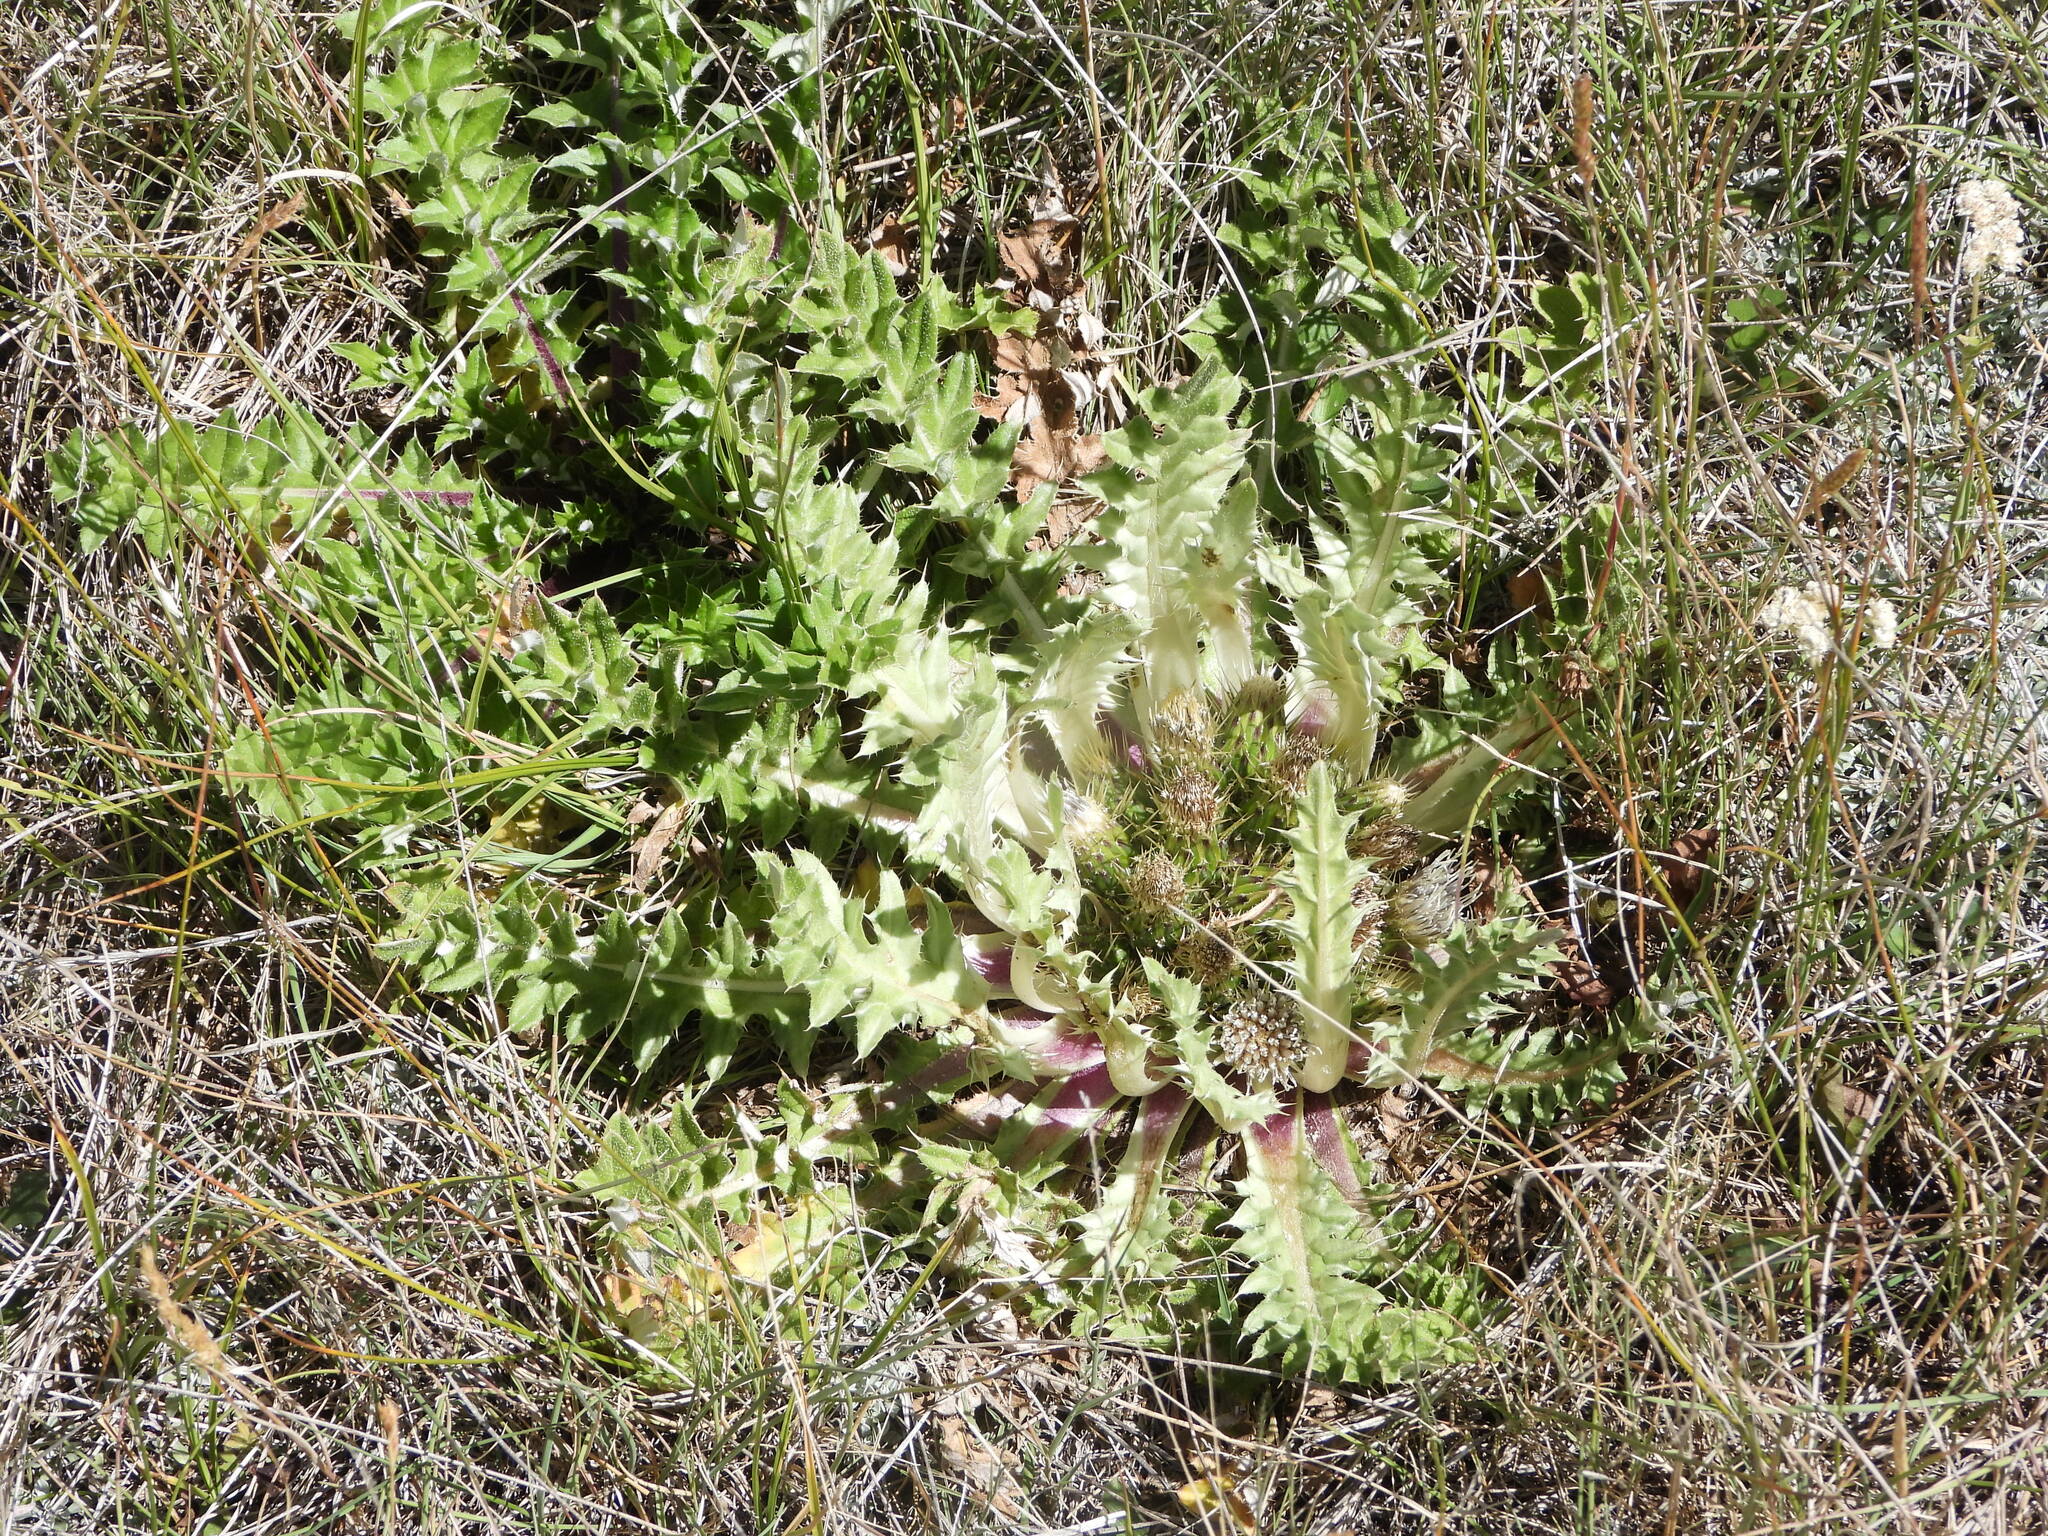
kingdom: Plantae
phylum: Tracheophyta
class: Magnoliopsida
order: Asterales
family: Asteraceae
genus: Cirsium
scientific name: Cirsium tioganum
